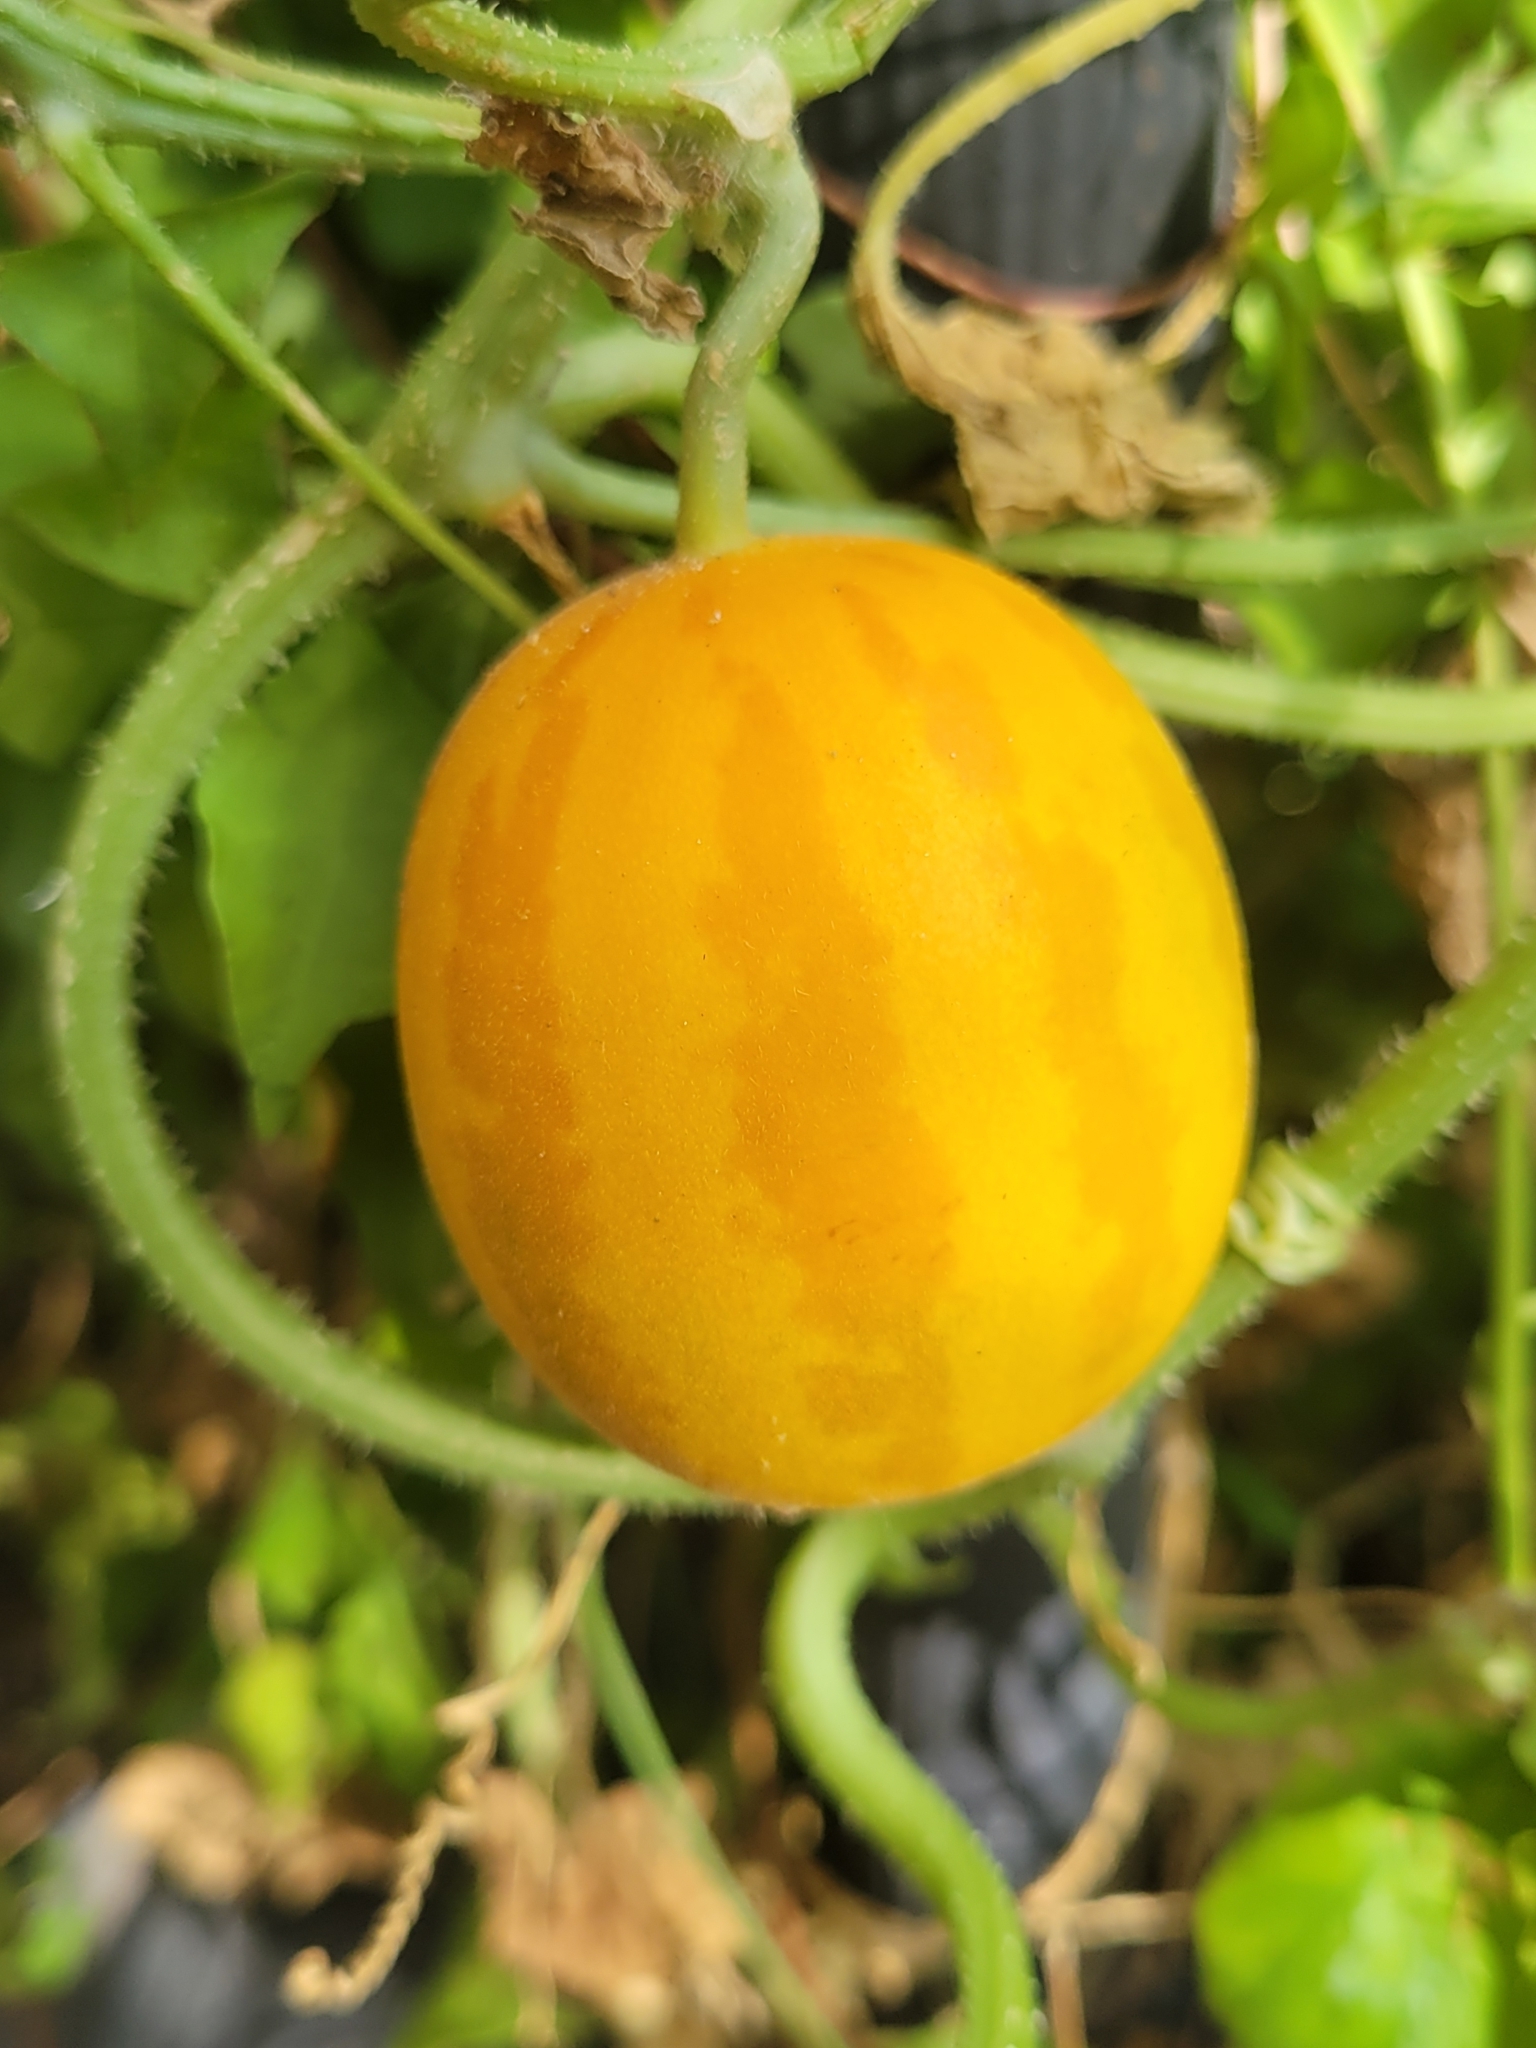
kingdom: Plantae
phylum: Tracheophyta
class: Magnoliopsida
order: Cucurbitales
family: Cucurbitaceae
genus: Cucumis
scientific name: Cucumis melo
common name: Melon
